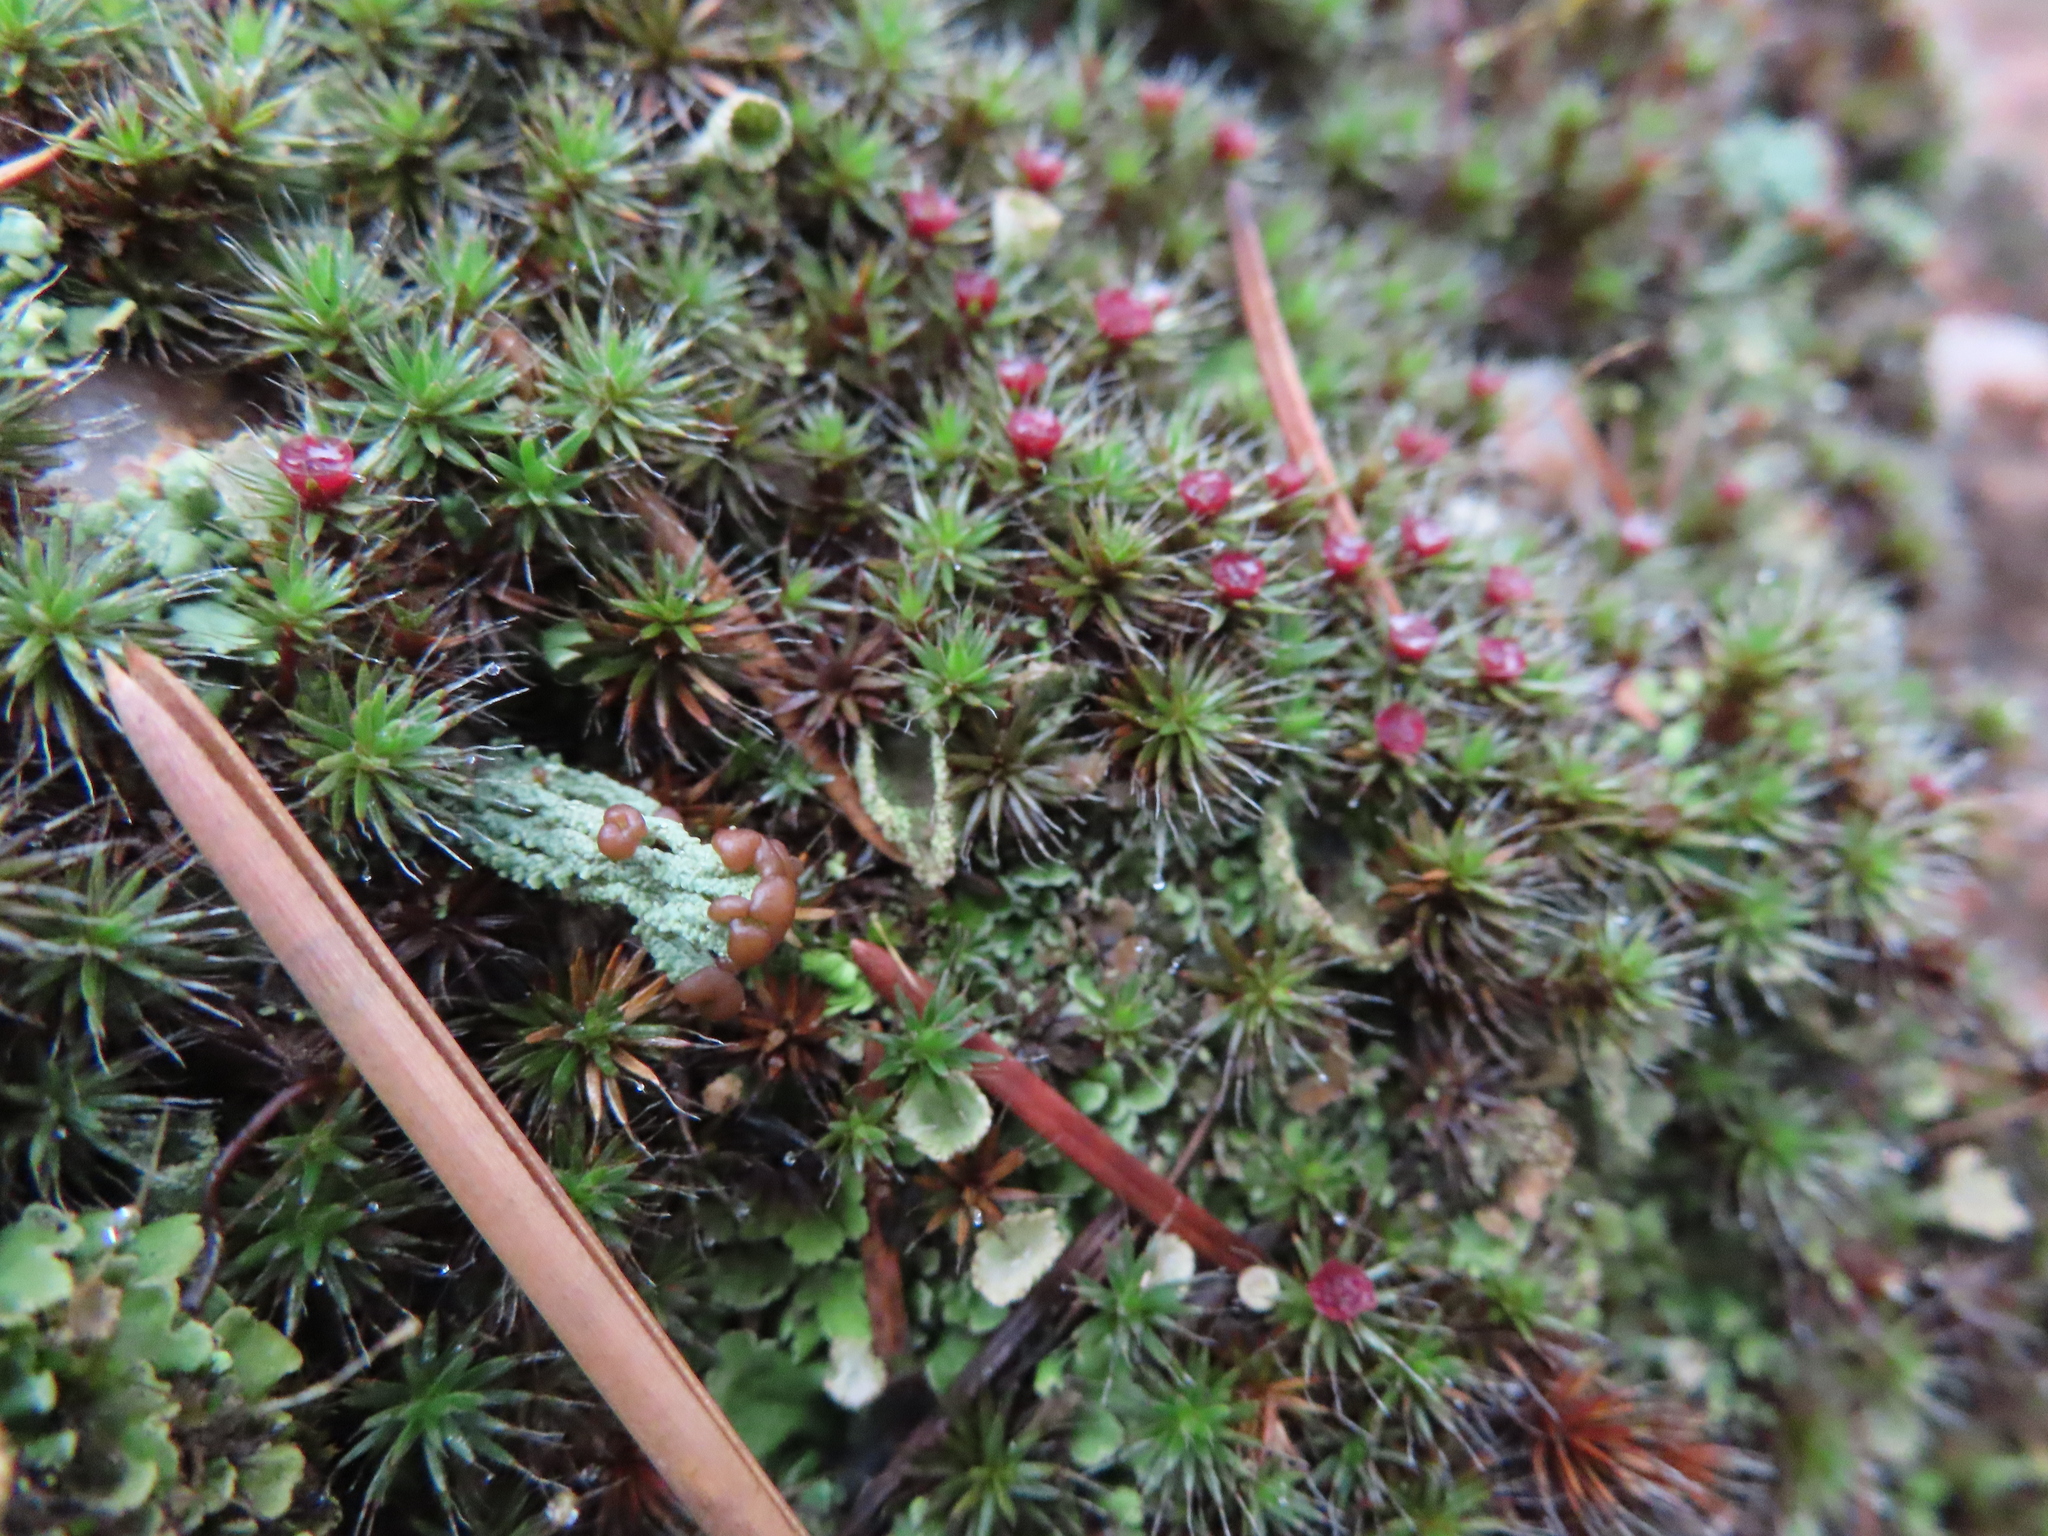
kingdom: Plantae
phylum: Bryophyta
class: Polytrichopsida
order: Polytrichales
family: Polytrichaceae
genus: Polytrichum
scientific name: Polytrichum piliferum
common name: Bristly haircap
